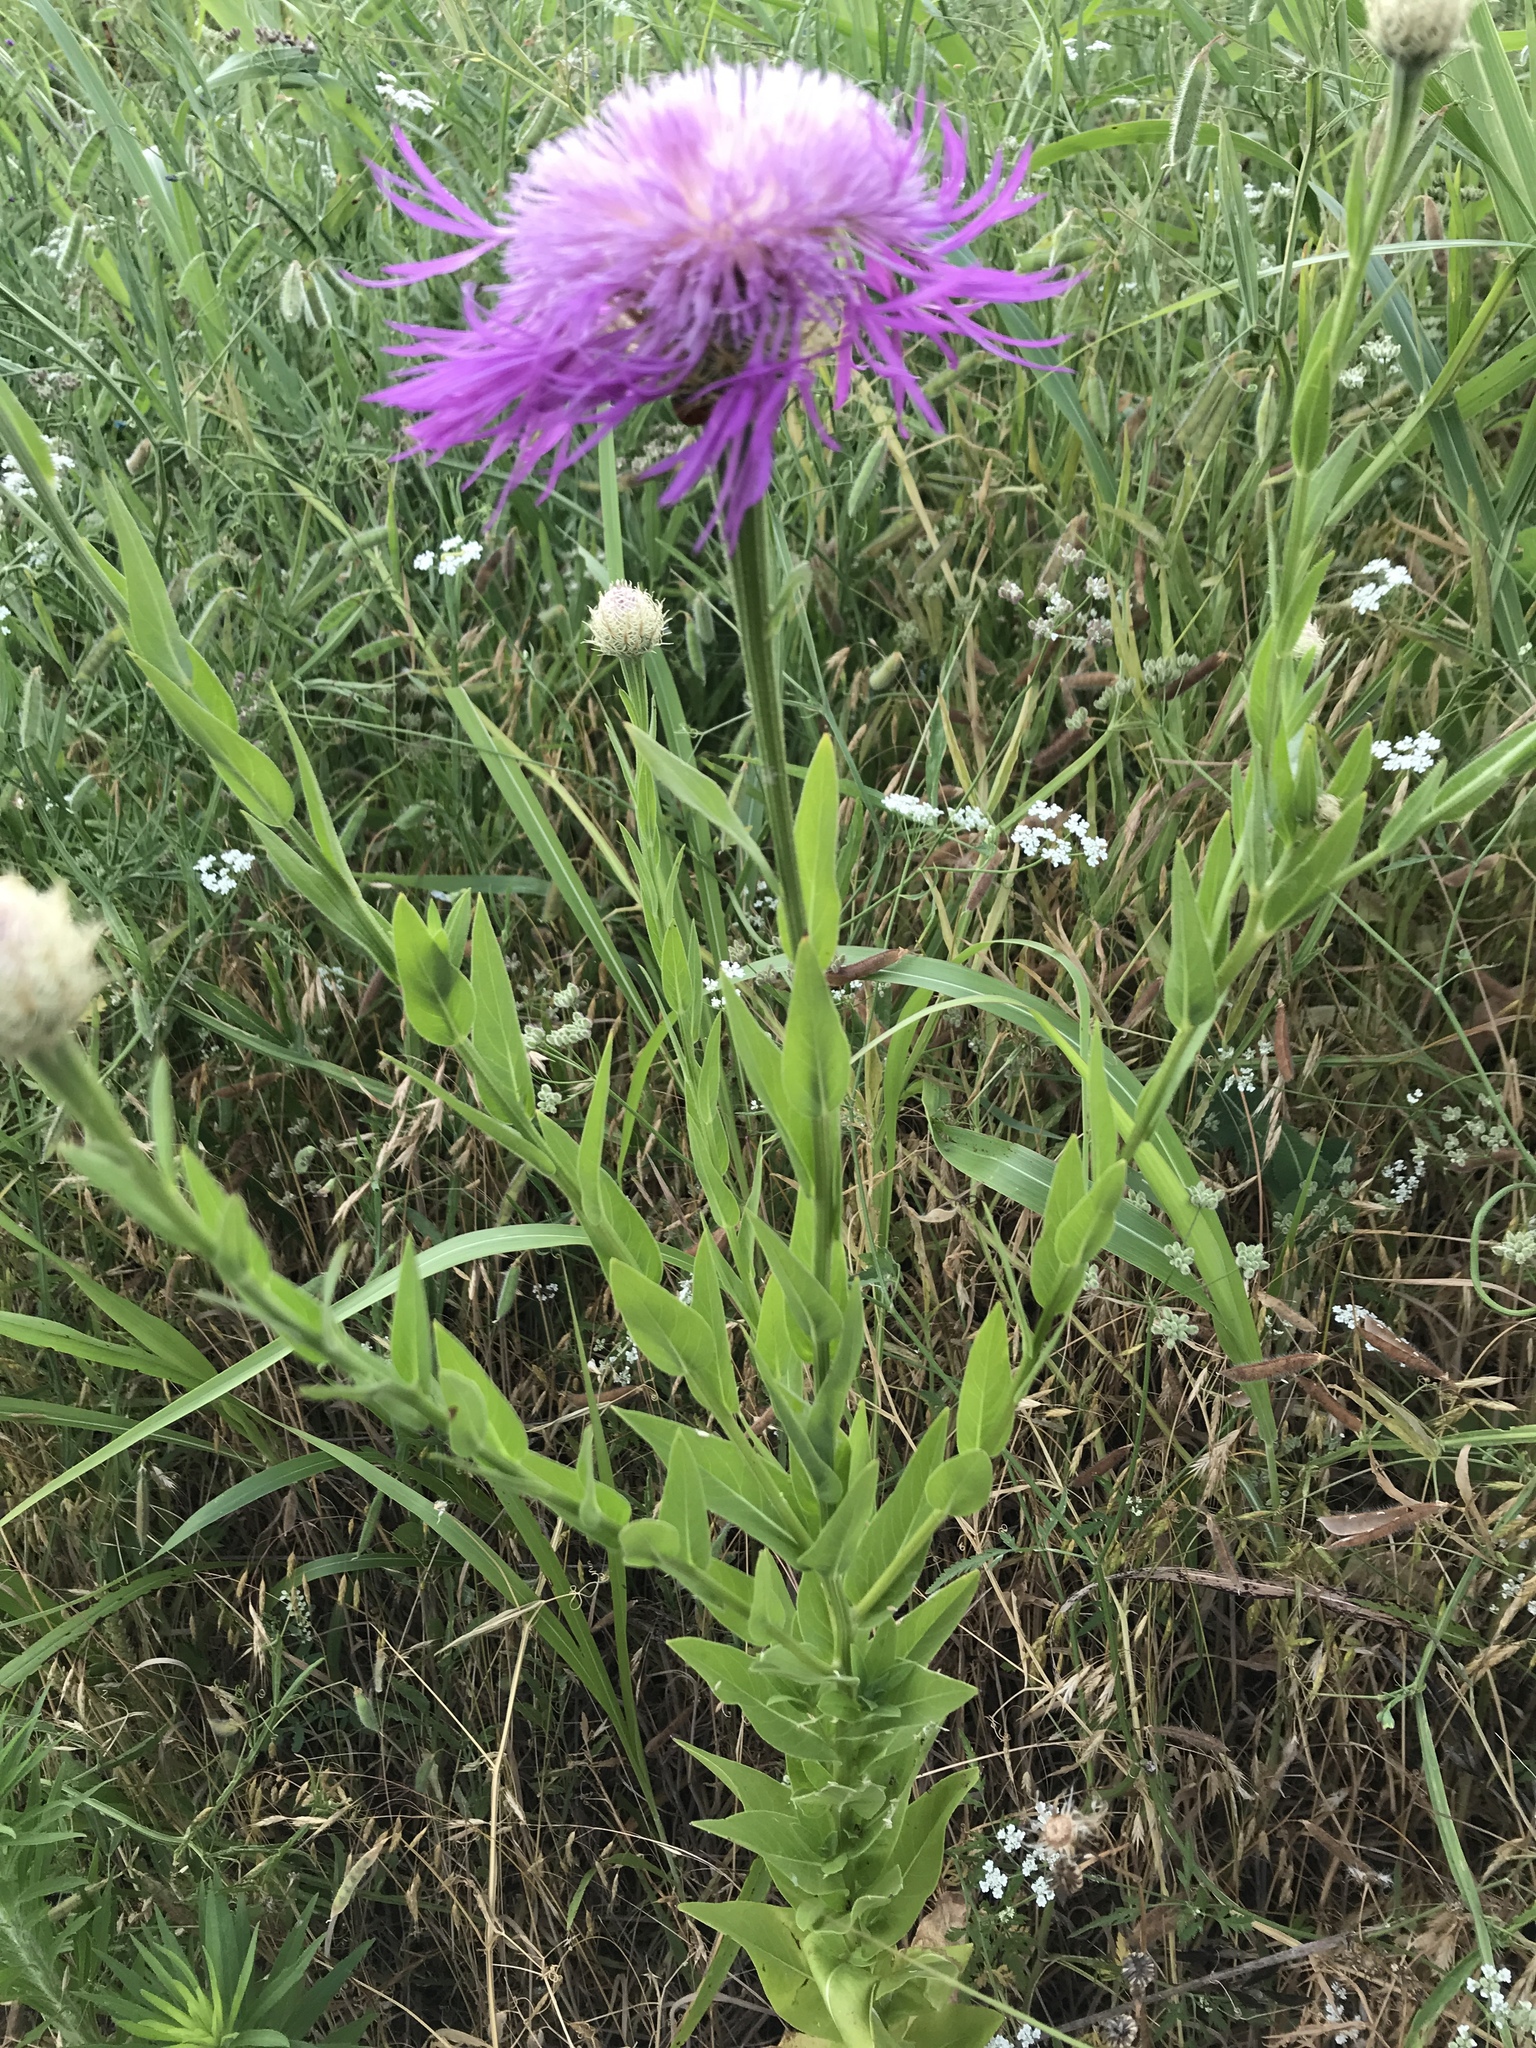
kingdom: Plantae
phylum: Tracheophyta
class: Magnoliopsida
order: Asterales
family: Asteraceae
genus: Plectocephalus
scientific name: Plectocephalus americanus
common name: American basket-flower
